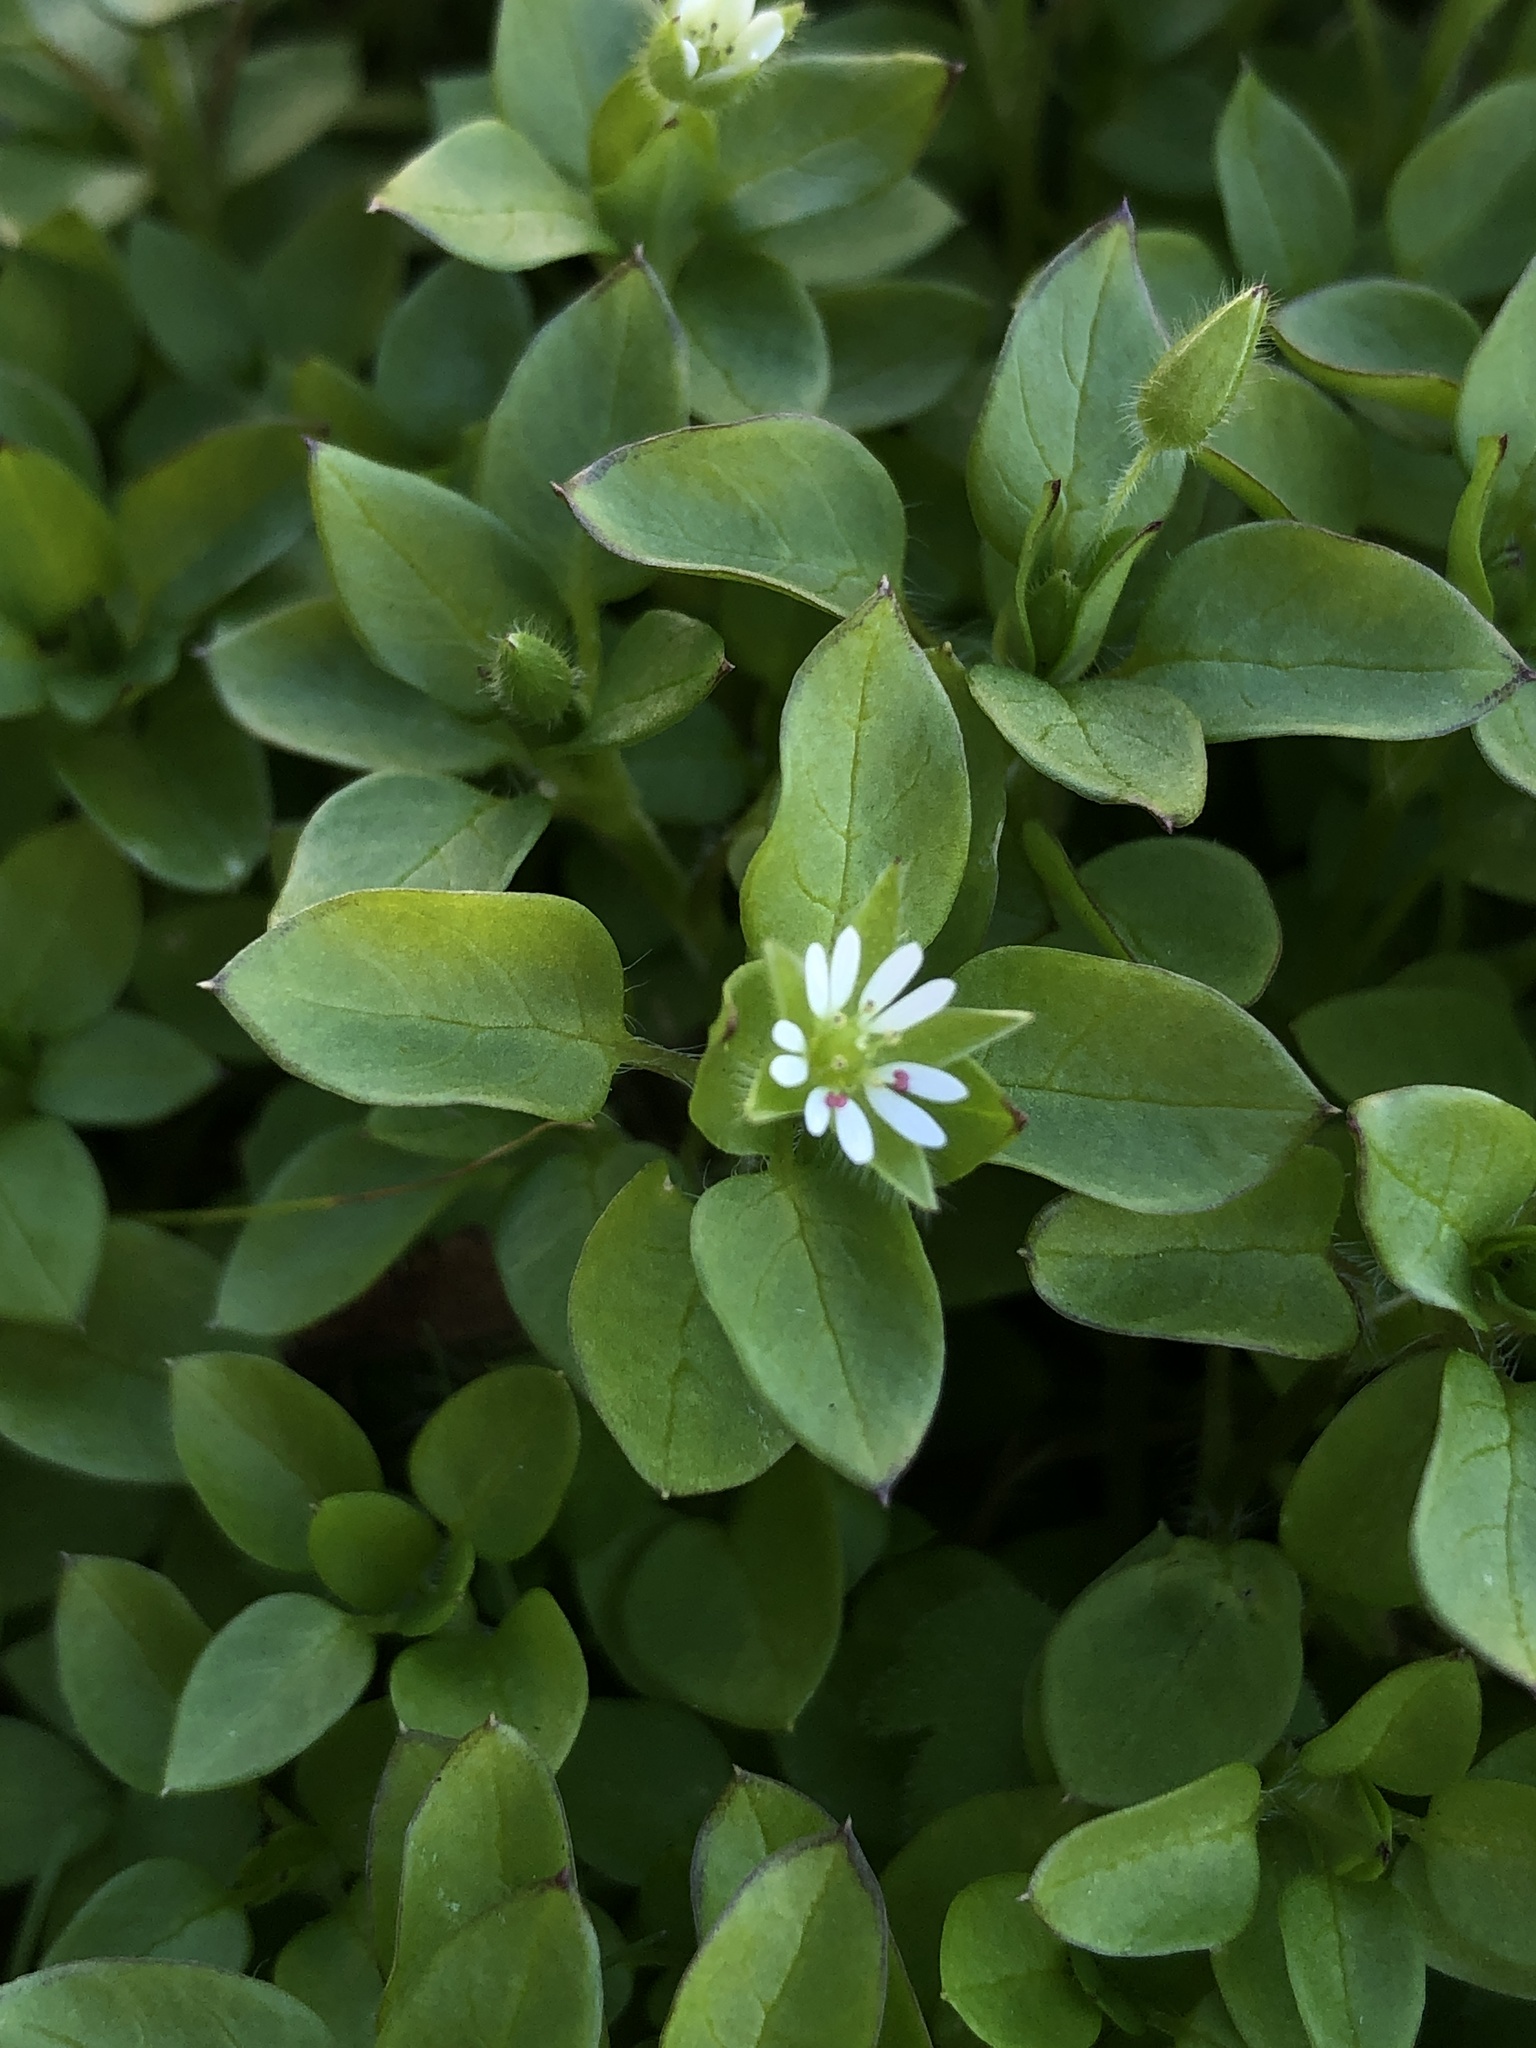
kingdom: Plantae
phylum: Tracheophyta
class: Magnoliopsida
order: Caryophyllales
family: Caryophyllaceae
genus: Stellaria
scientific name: Stellaria media
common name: Common chickweed
